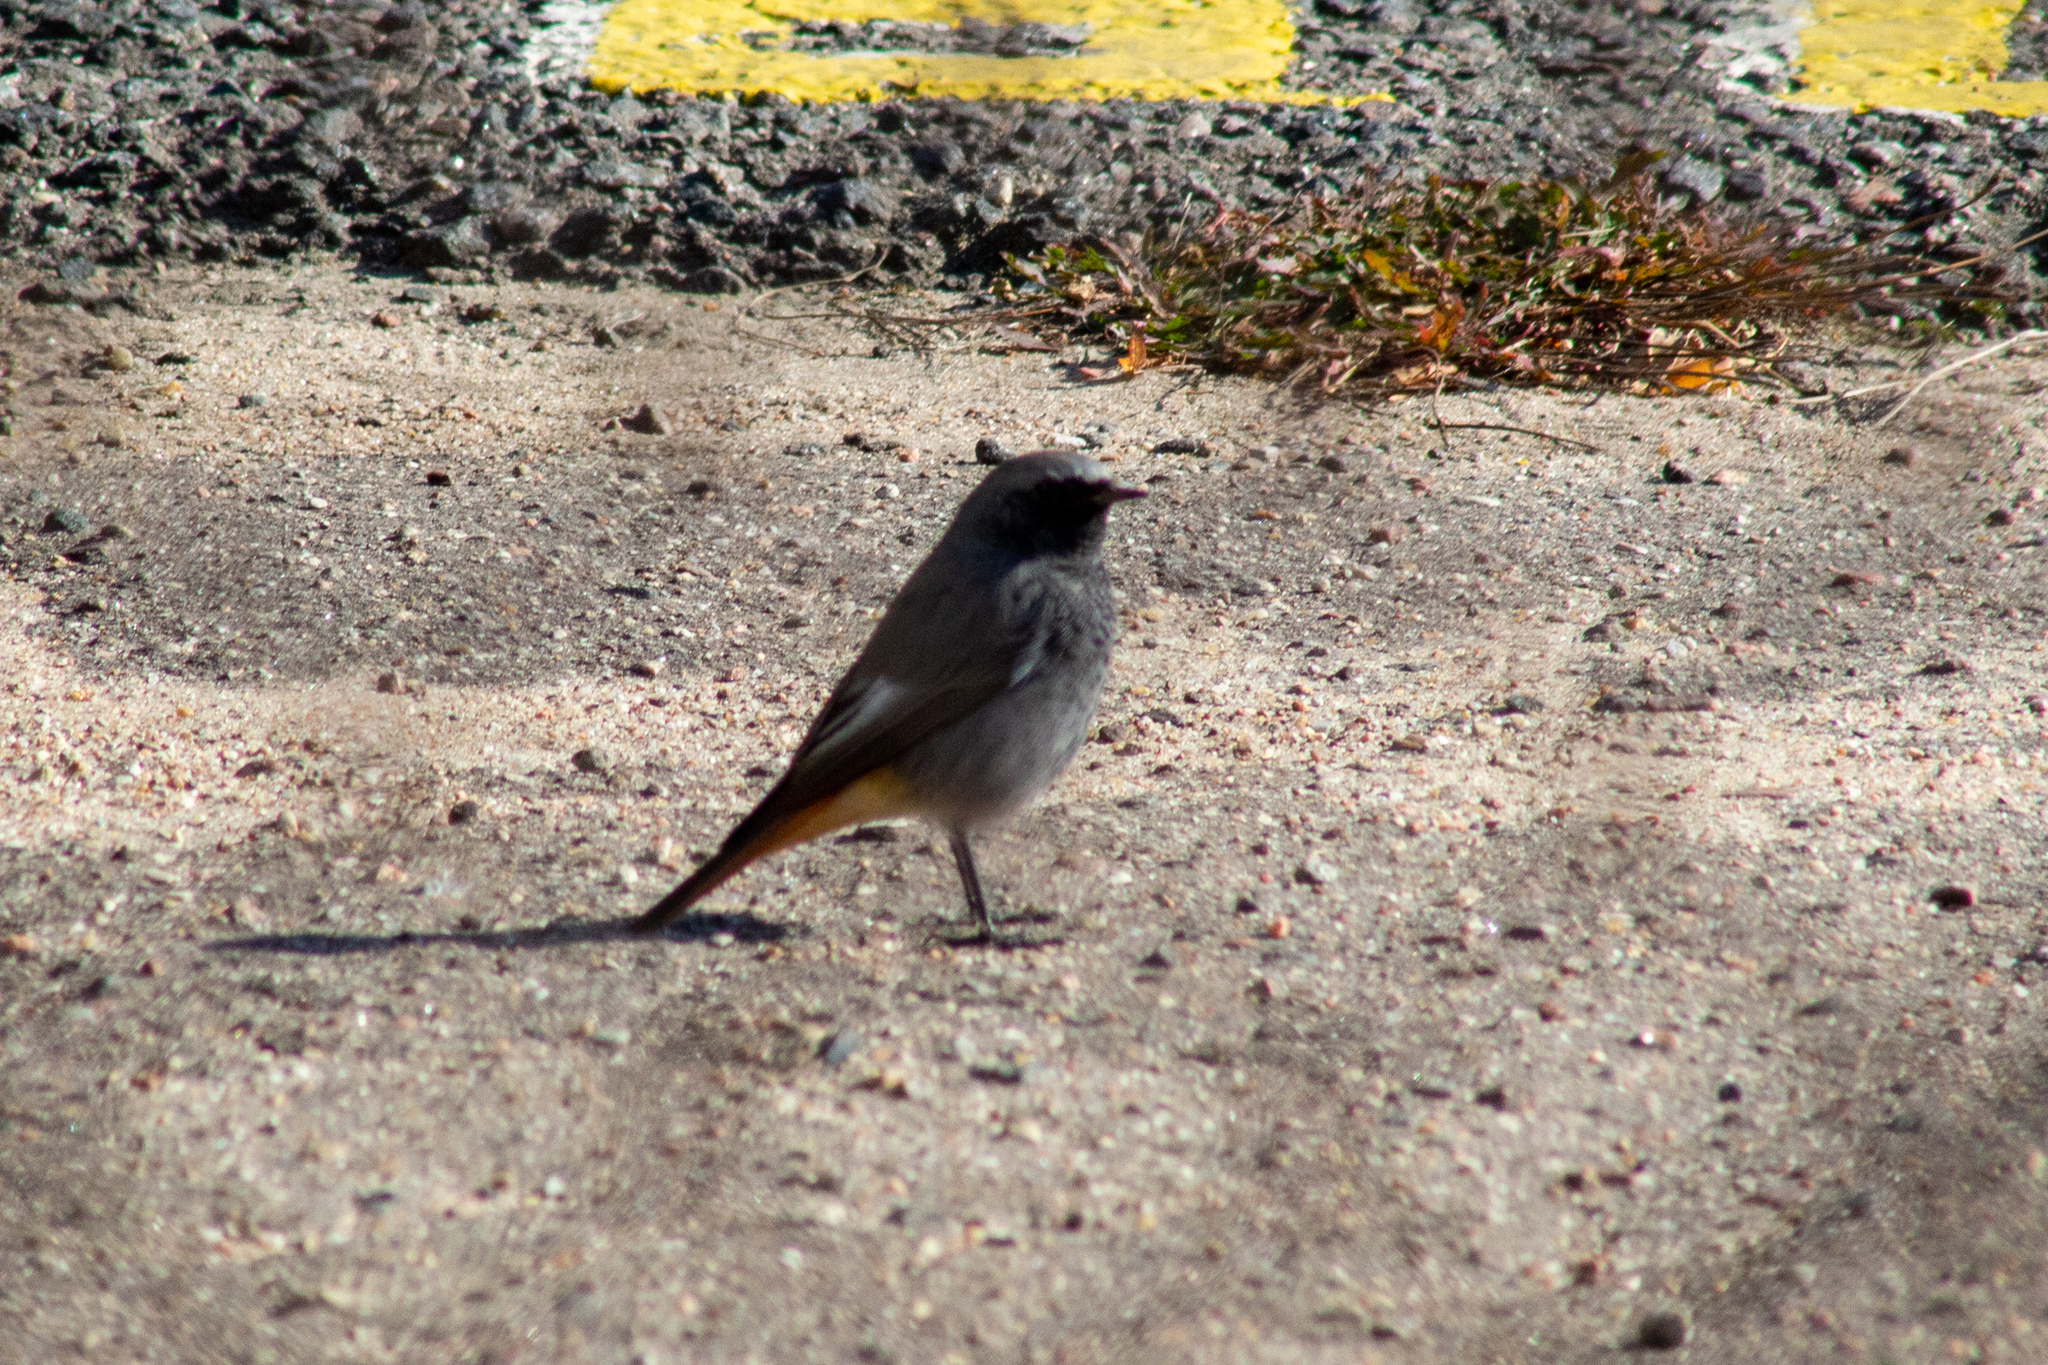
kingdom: Animalia
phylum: Chordata
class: Aves
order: Passeriformes
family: Muscicapidae
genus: Phoenicurus
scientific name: Phoenicurus ochruros
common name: Black redstart
